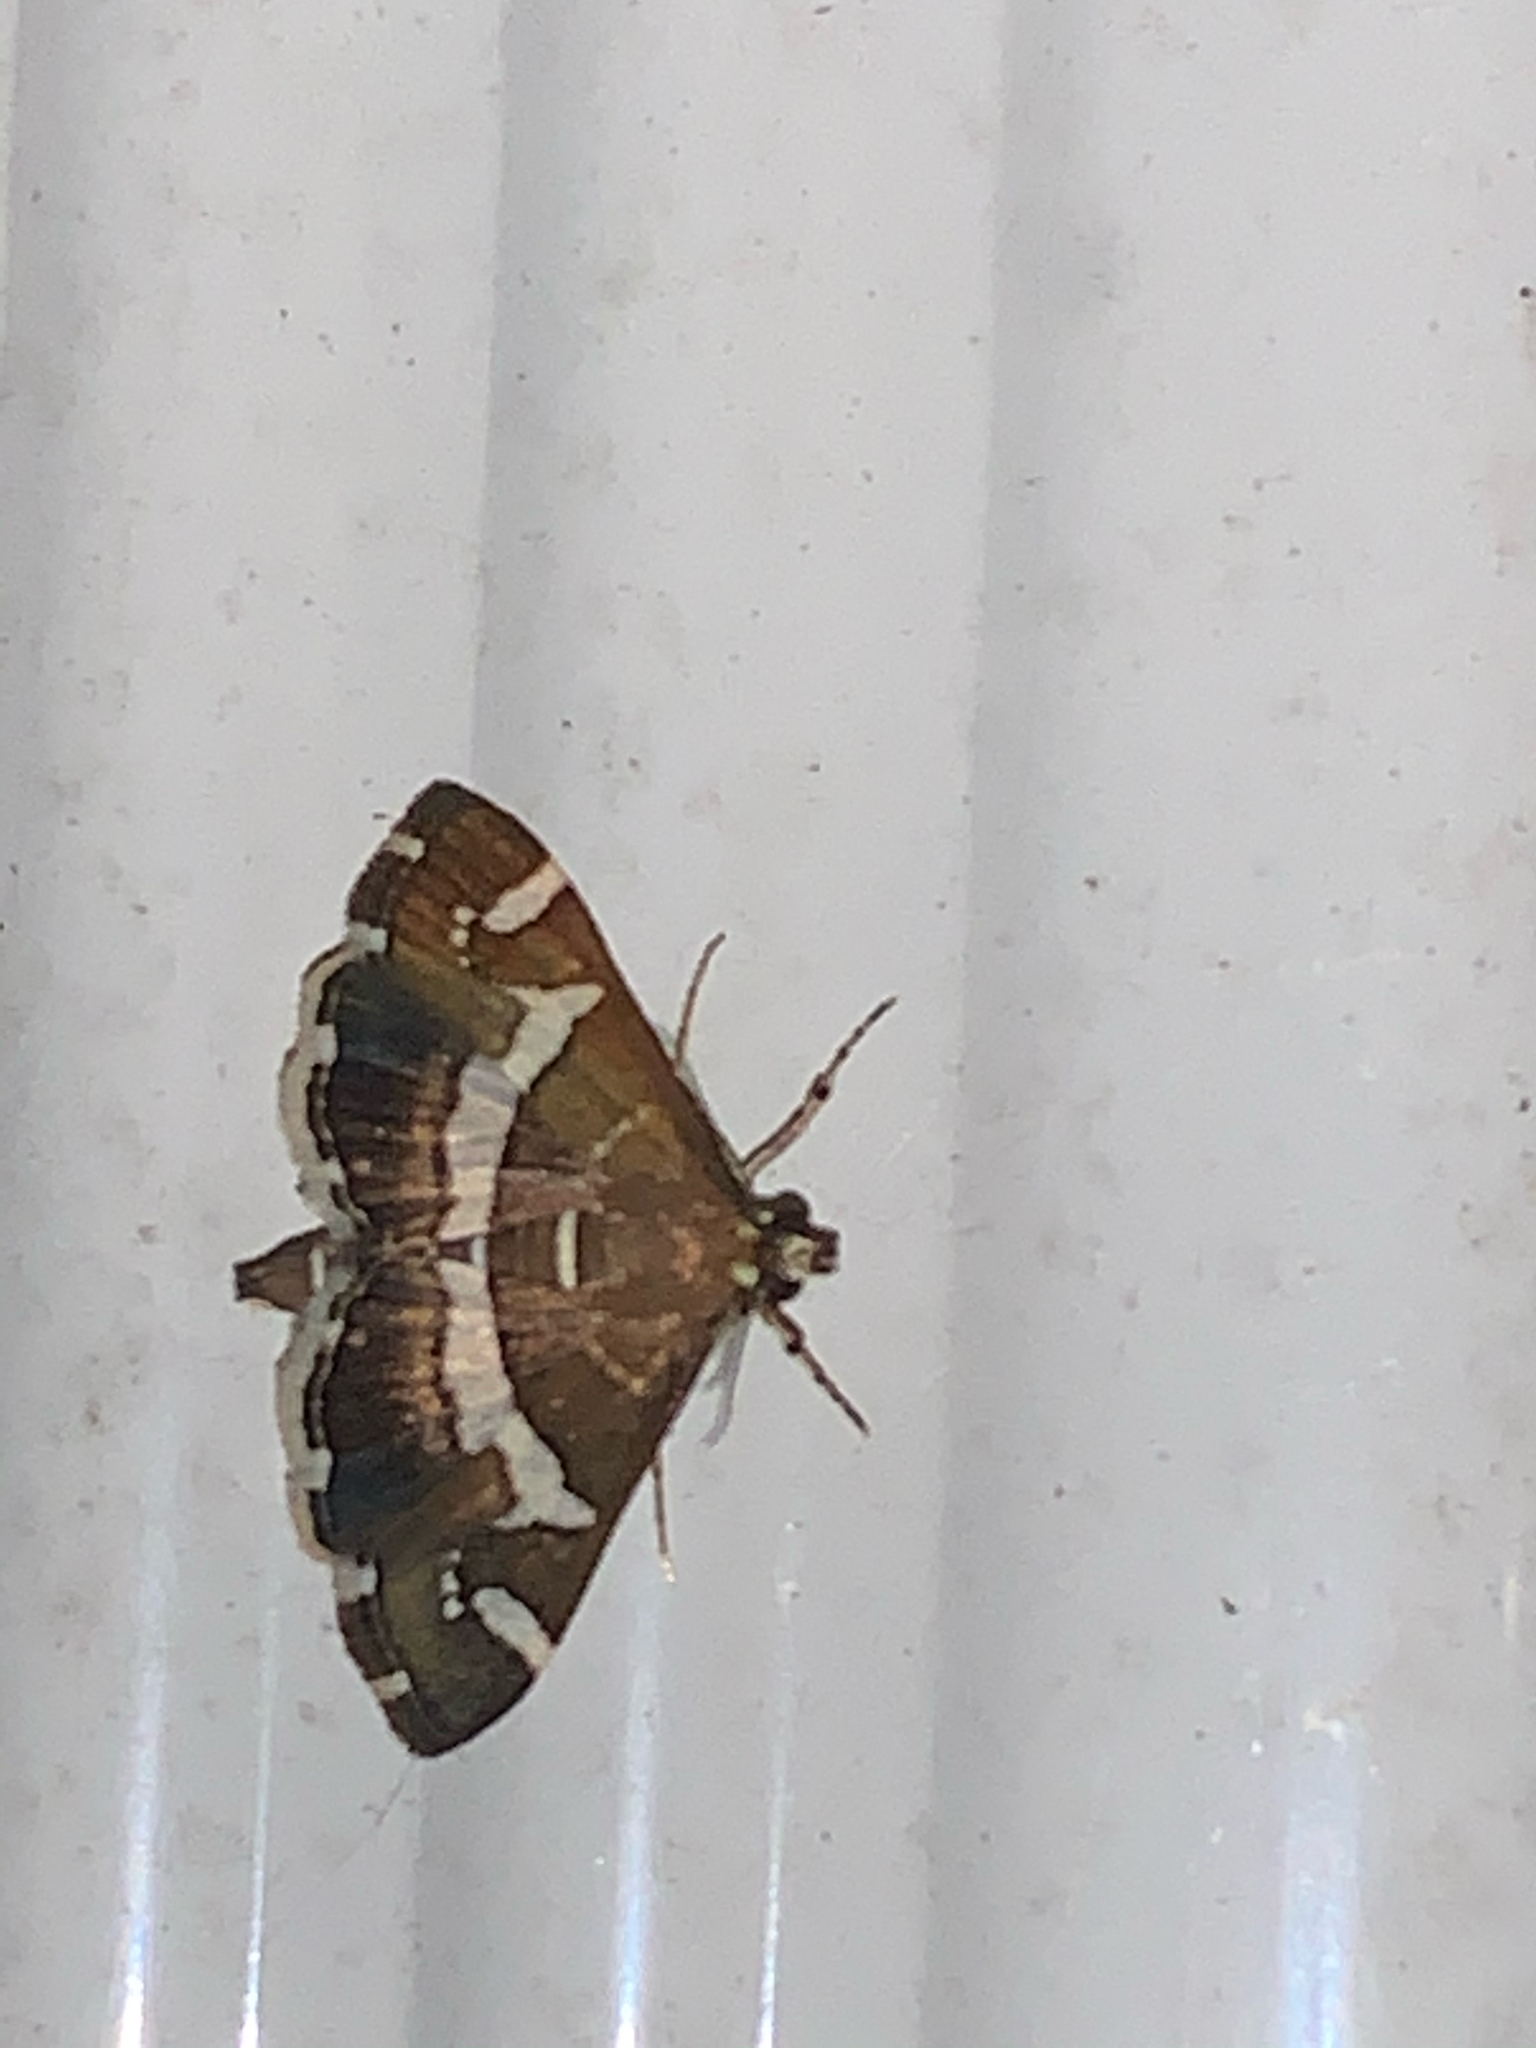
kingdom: Animalia
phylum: Arthropoda
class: Insecta
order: Lepidoptera
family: Crambidae
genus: Spoladea
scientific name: Spoladea recurvalis
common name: Beet webworm moth
